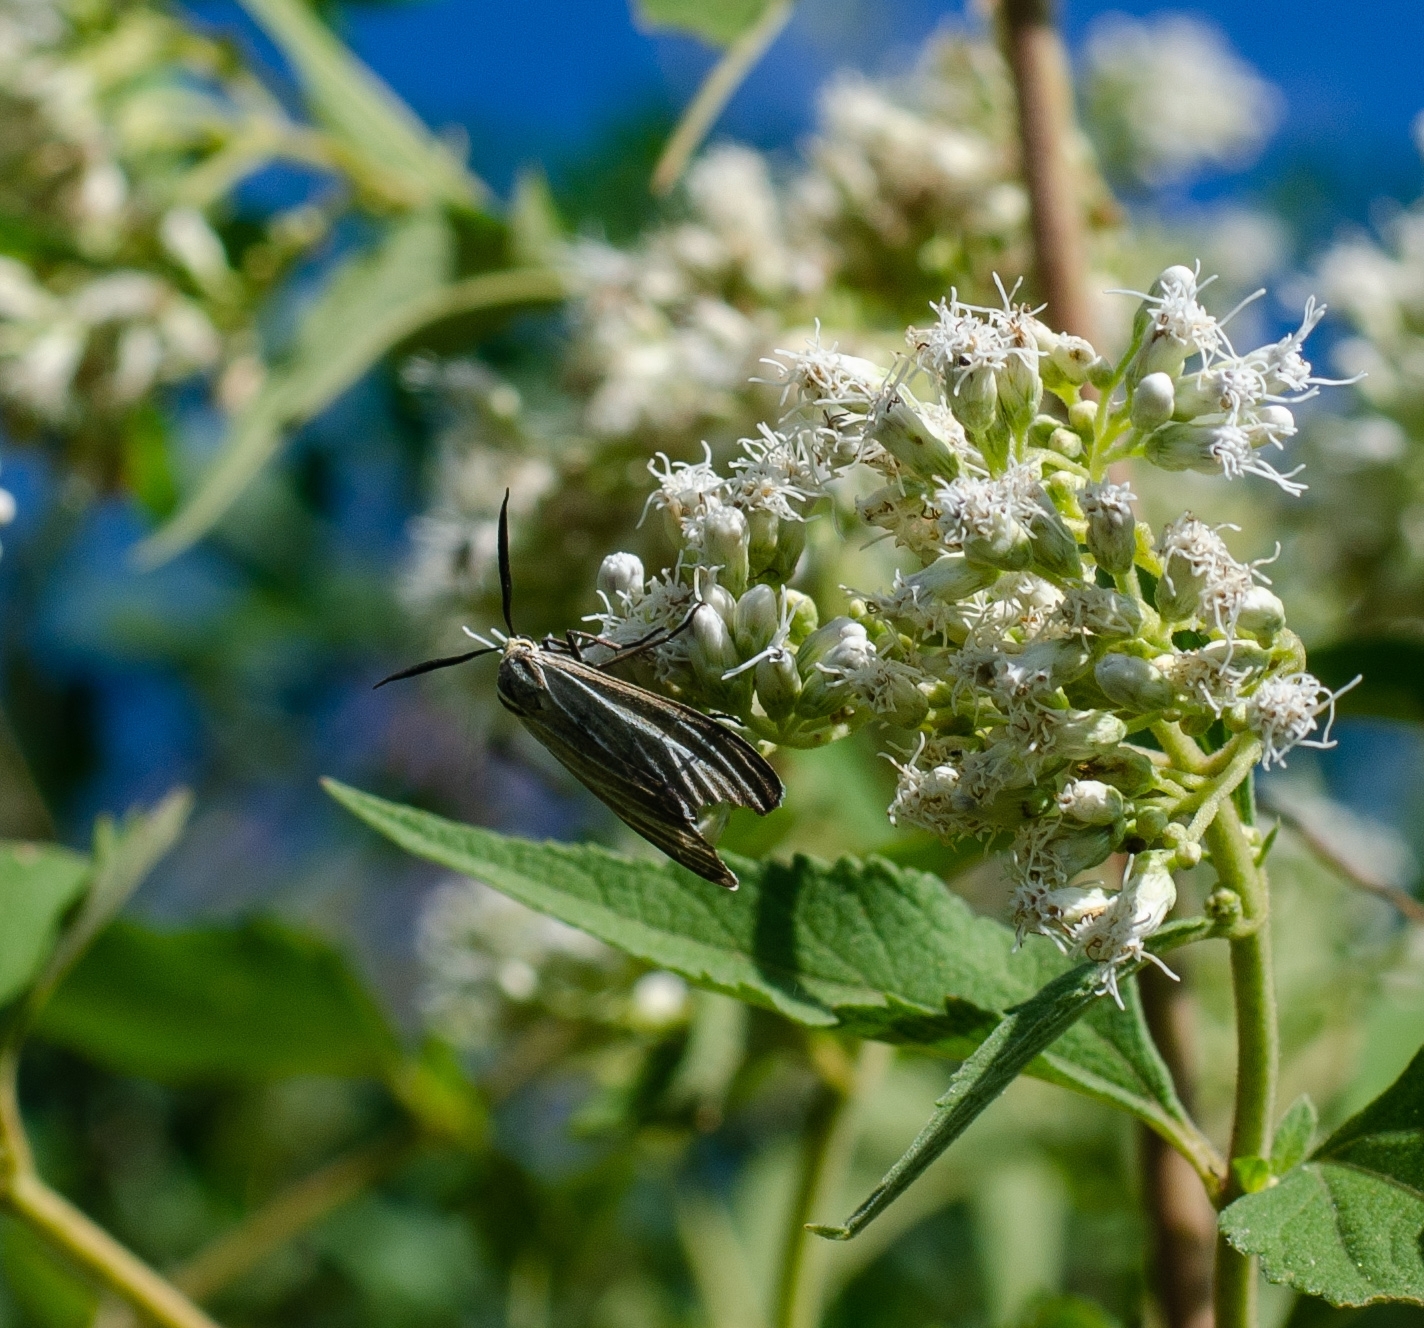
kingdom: Animalia
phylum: Arthropoda
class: Insecta
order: Lepidoptera
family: Erebidae
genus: Ctenucha
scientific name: Ctenucha devisum
